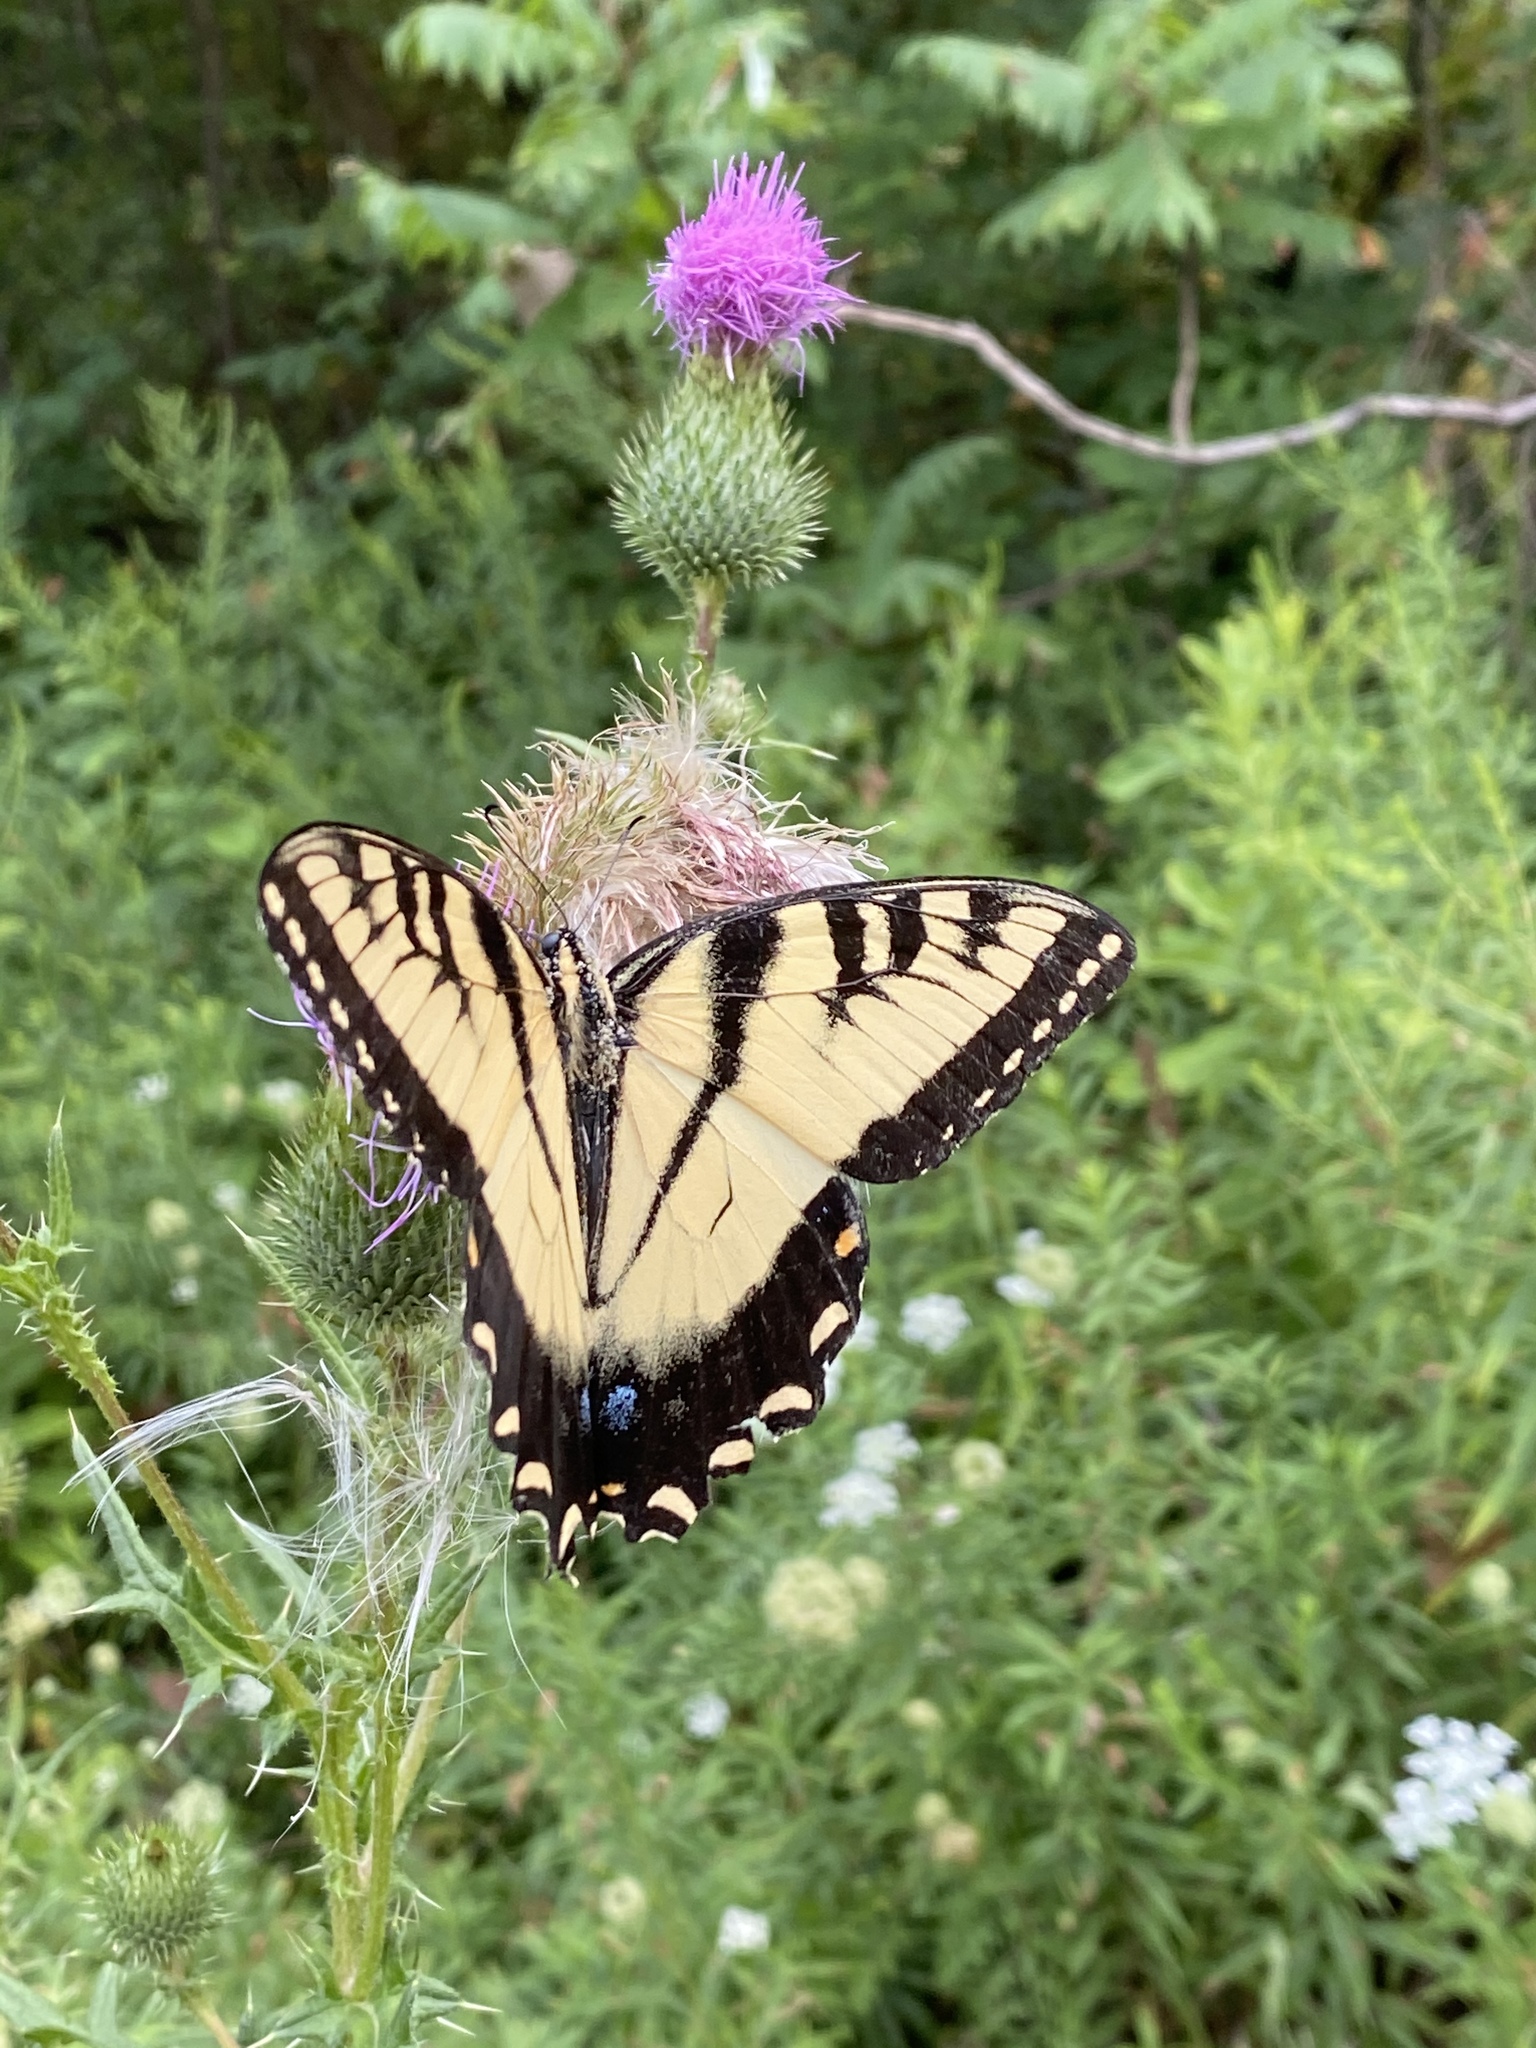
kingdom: Animalia
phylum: Arthropoda
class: Insecta
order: Lepidoptera
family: Papilionidae
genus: Papilio
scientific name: Papilio glaucus
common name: Tiger swallowtail
